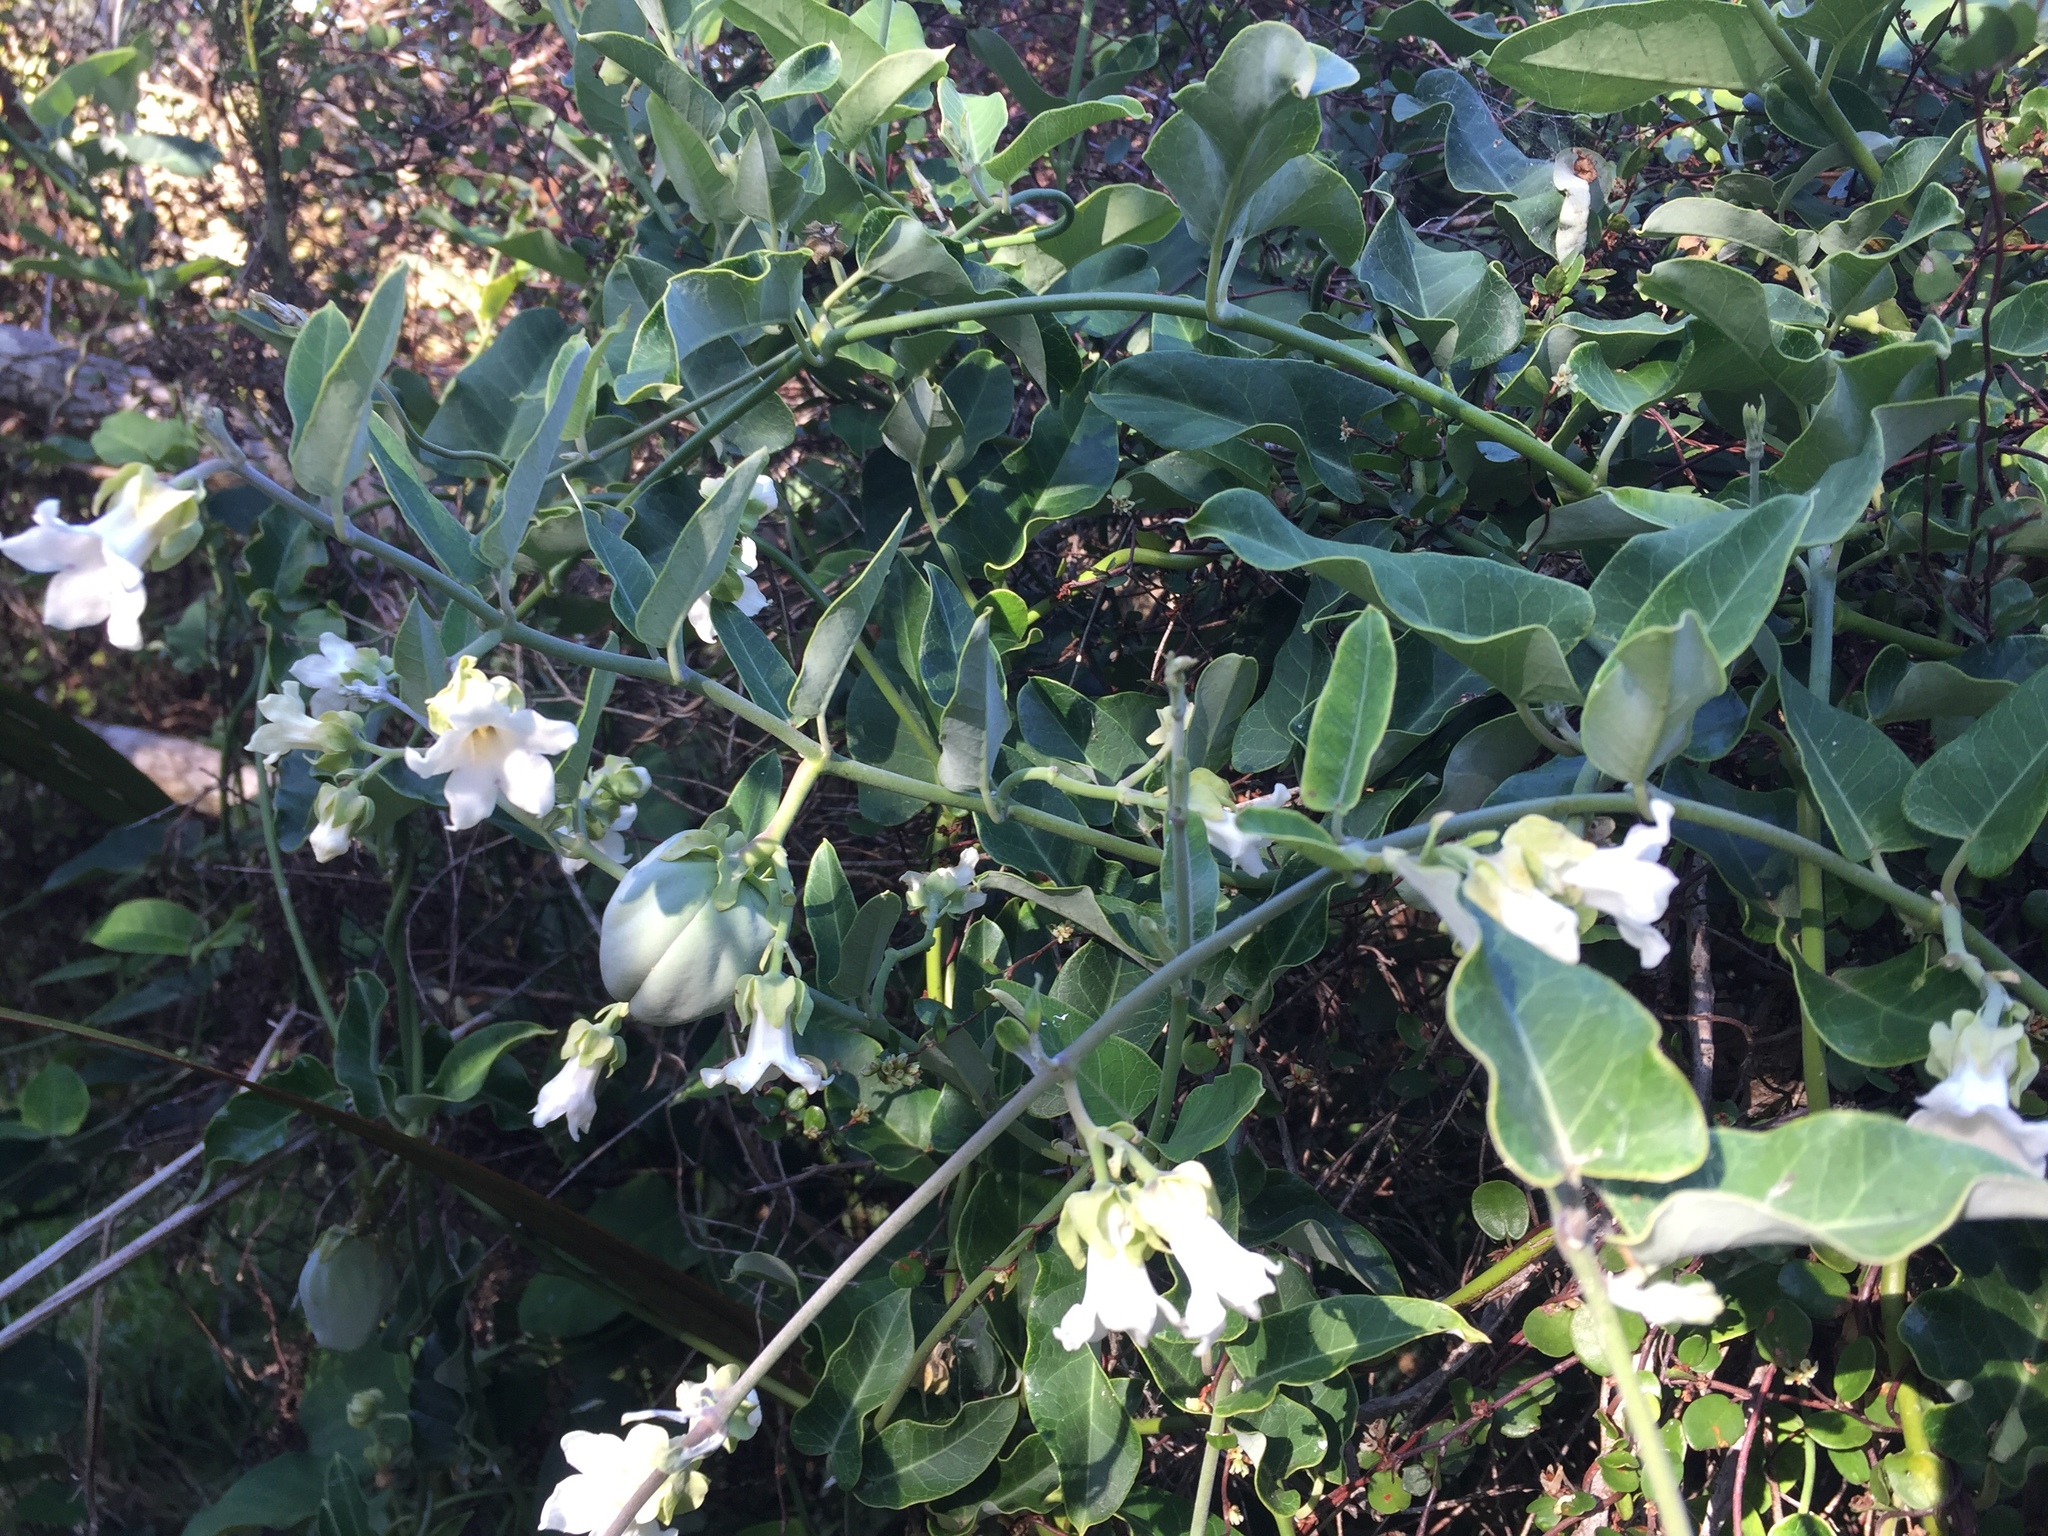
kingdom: Plantae
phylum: Tracheophyta
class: Magnoliopsida
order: Gentianales
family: Apocynaceae
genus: Araujia
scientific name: Araujia sericifera
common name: White bladderflower
